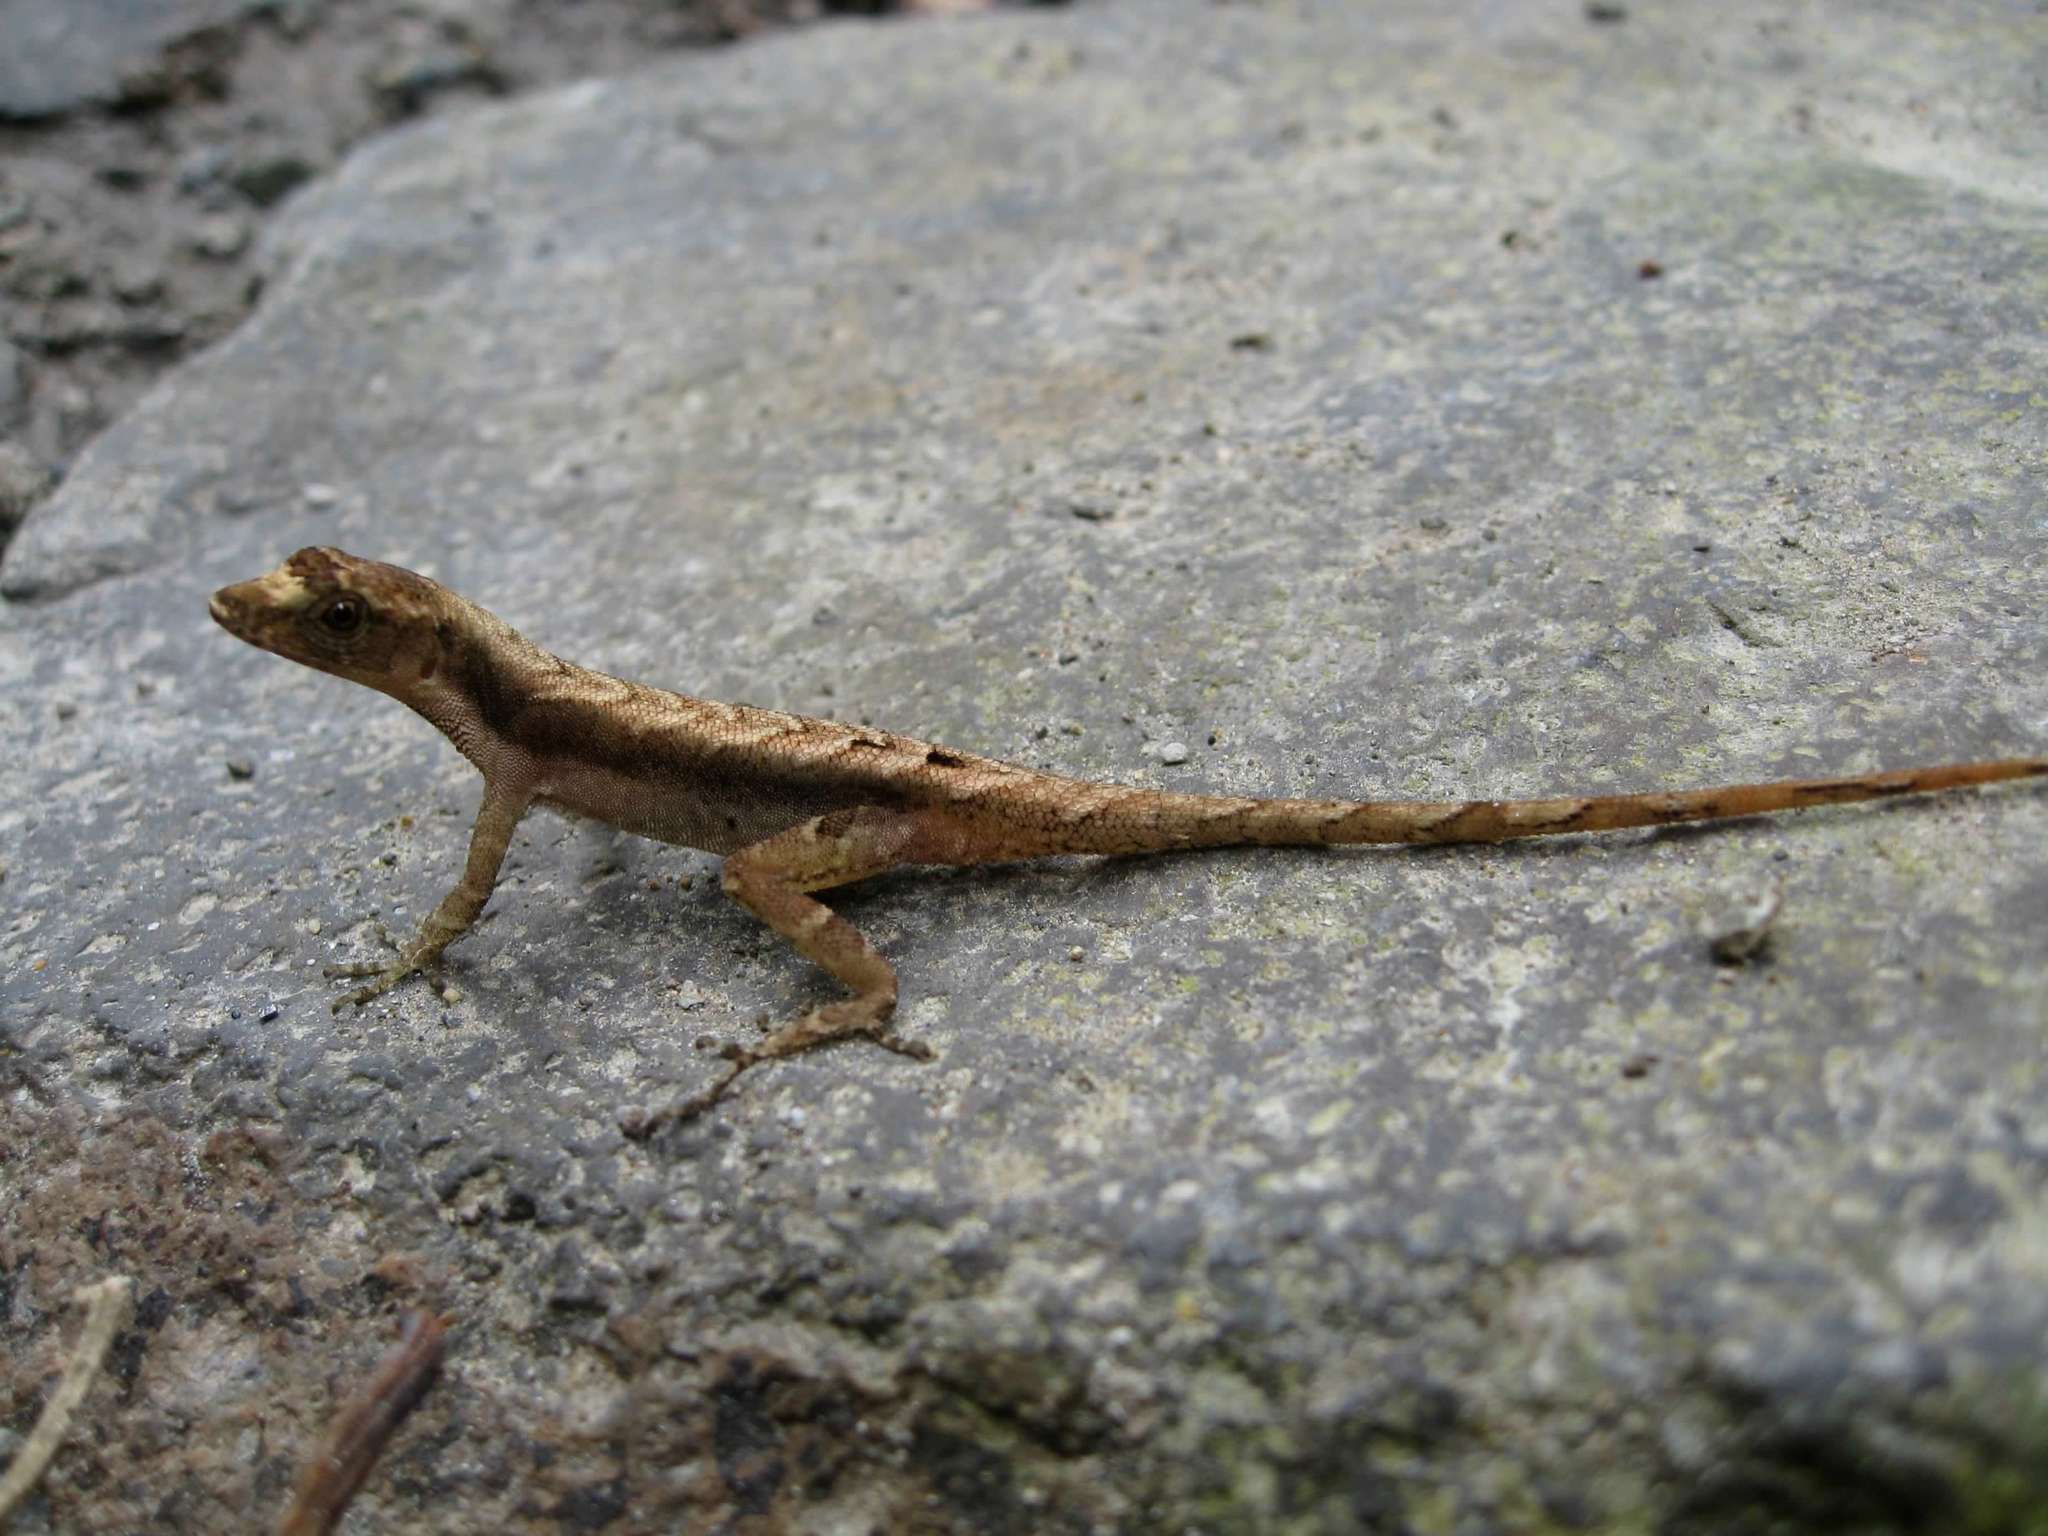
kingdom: Animalia
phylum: Chordata
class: Squamata
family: Dactyloidae
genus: Anolis
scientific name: Anolis humilis
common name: Humble anole
